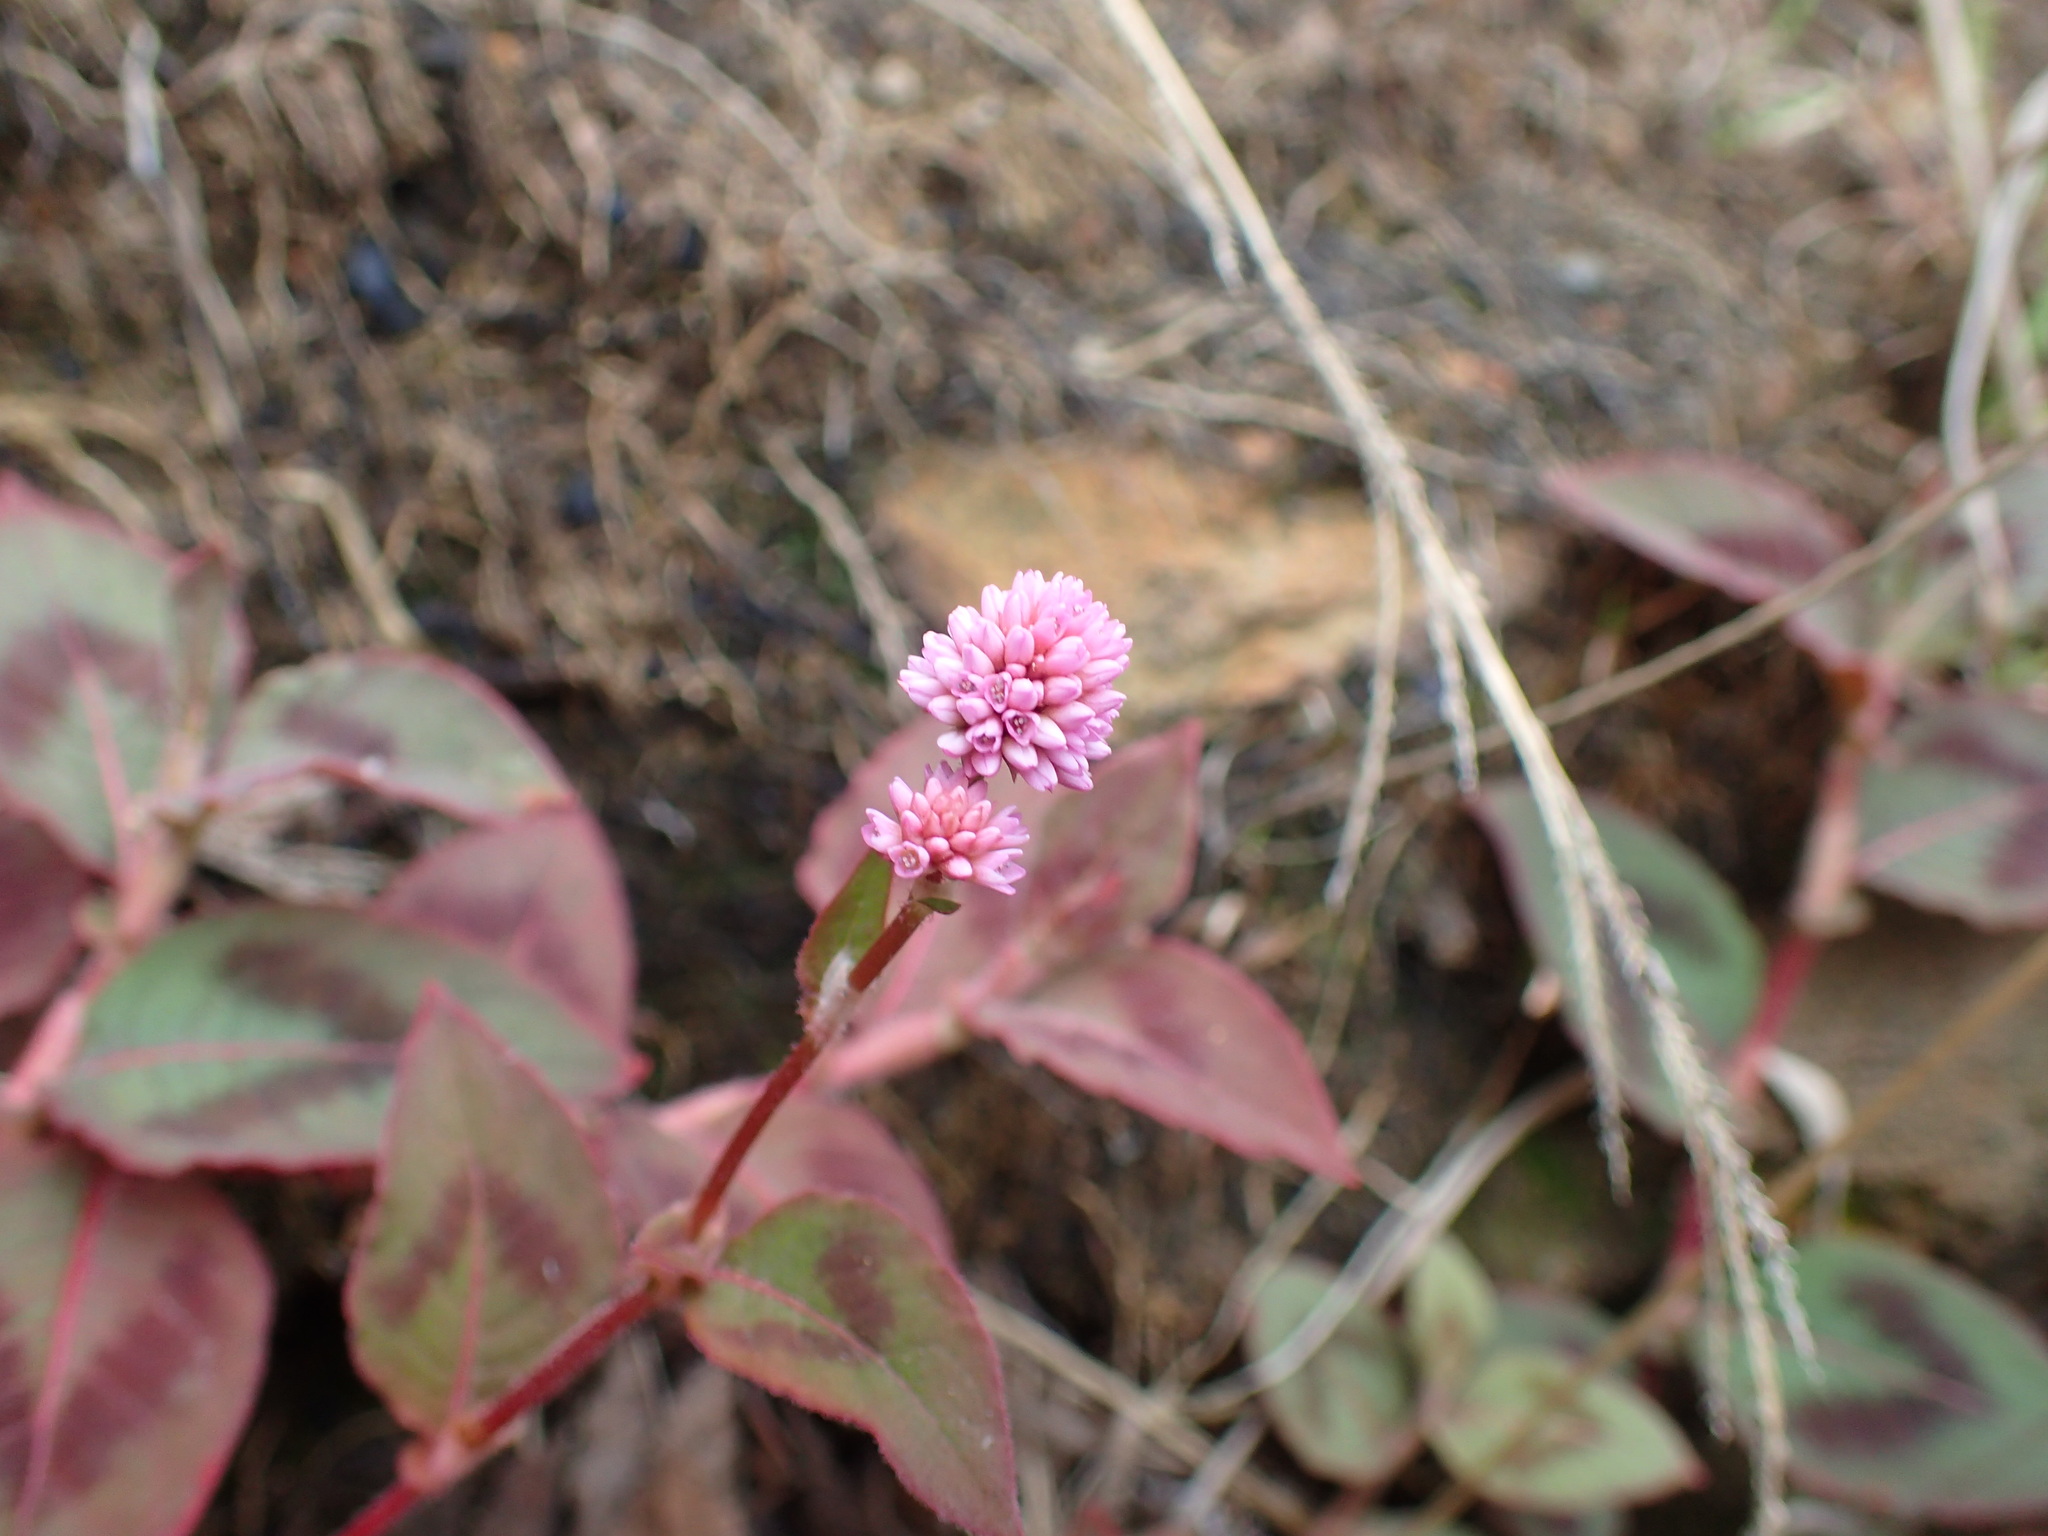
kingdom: Plantae
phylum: Tracheophyta
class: Magnoliopsida
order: Caryophyllales
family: Polygonaceae
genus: Persicaria
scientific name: Persicaria capitata
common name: Pinkhead smartweed
